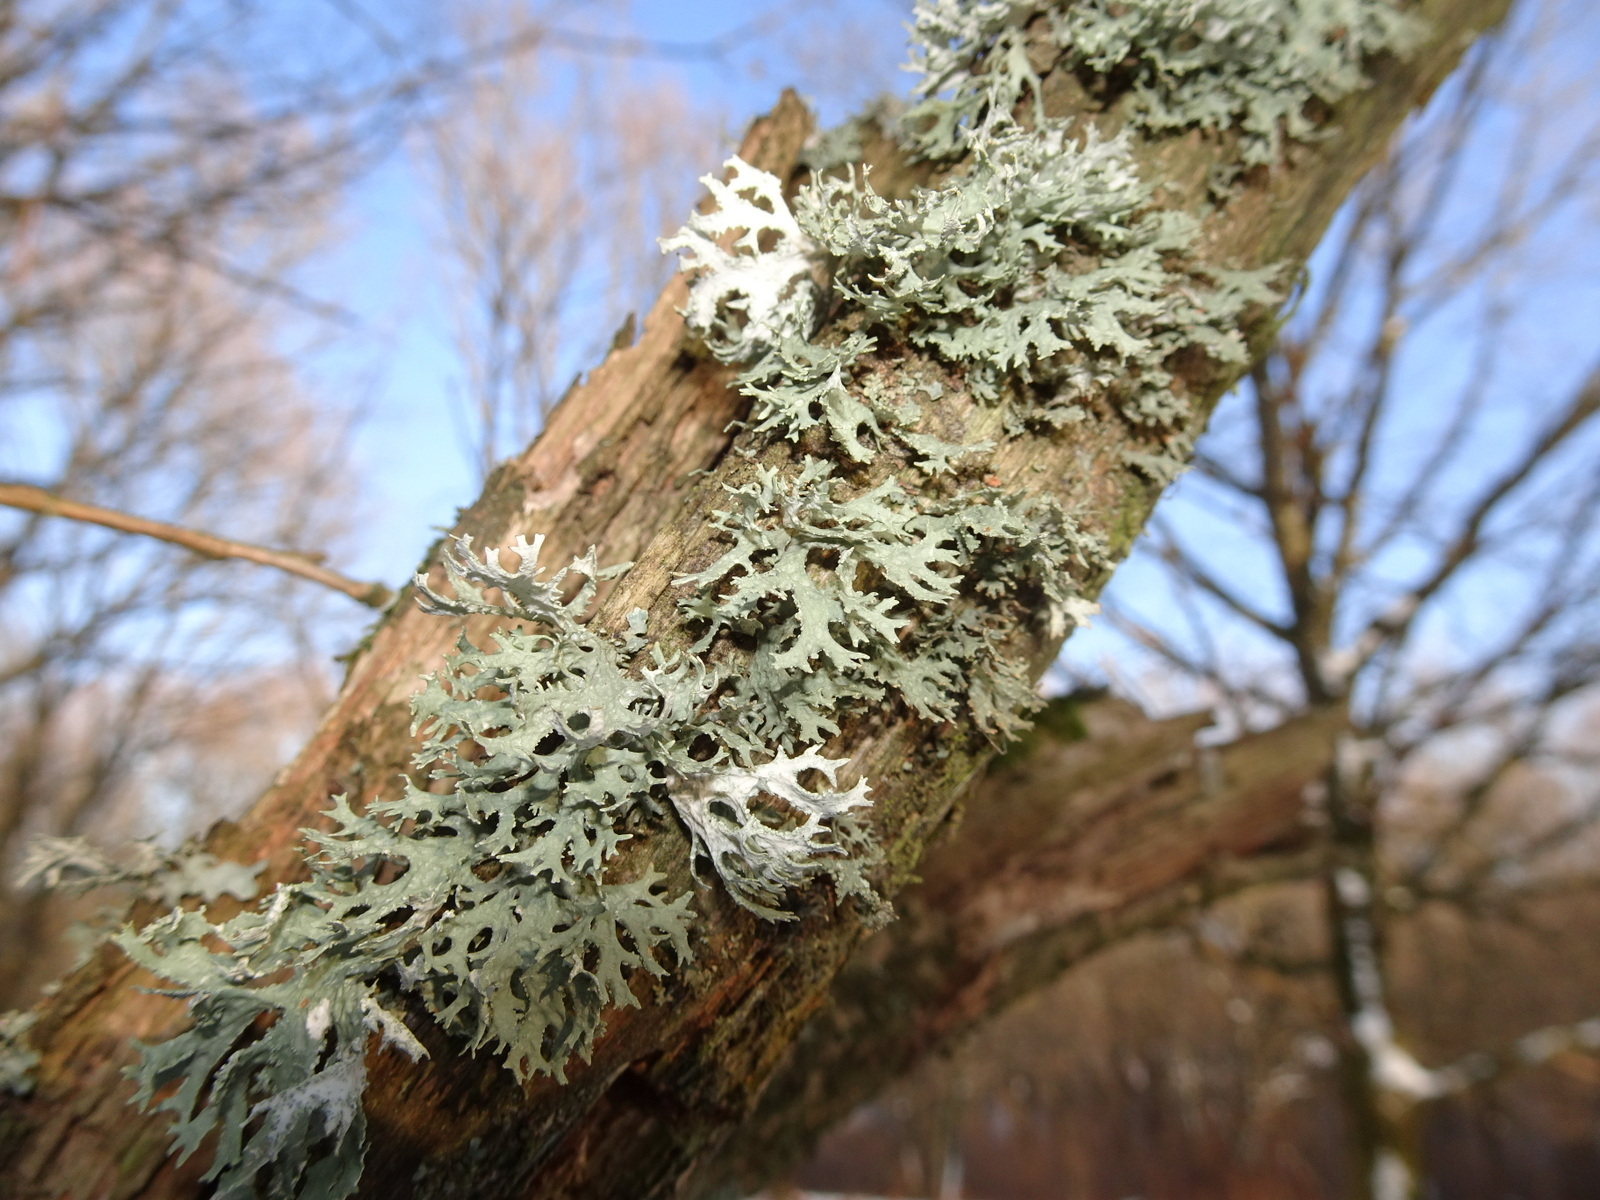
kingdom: Fungi
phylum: Ascomycota
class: Lecanoromycetes
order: Lecanorales
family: Parmeliaceae
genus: Evernia
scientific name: Evernia prunastri
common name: Oak moss
